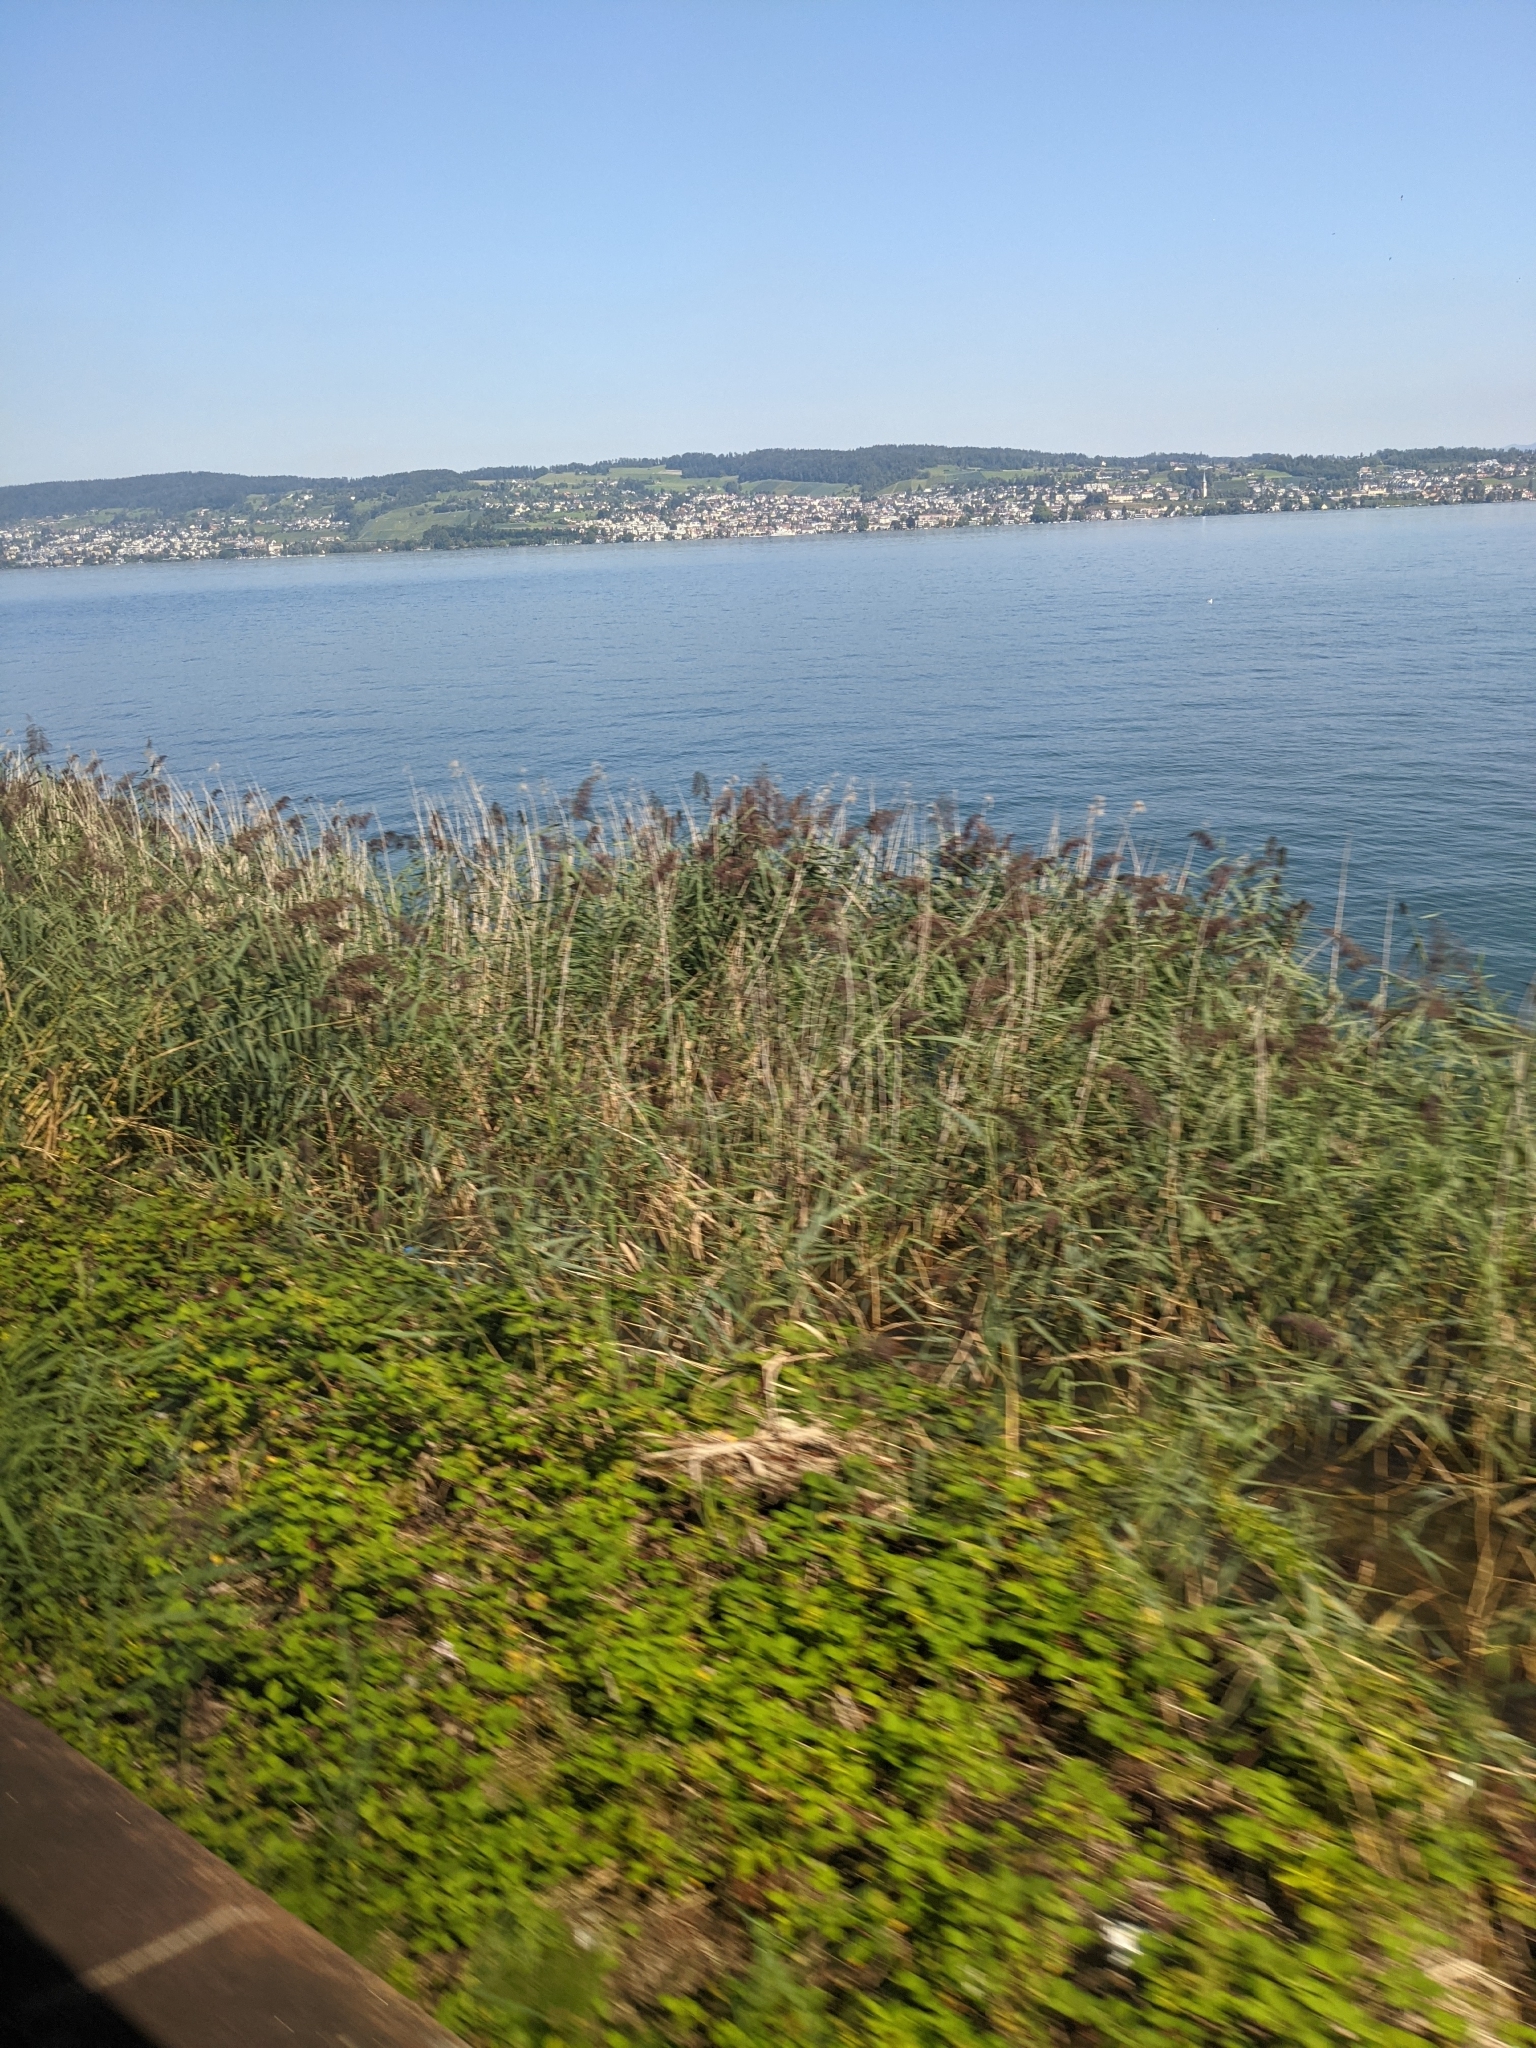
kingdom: Plantae
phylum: Tracheophyta
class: Liliopsida
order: Poales
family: Poaceae
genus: Phragmites
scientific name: Phragmites australis
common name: Common reed
